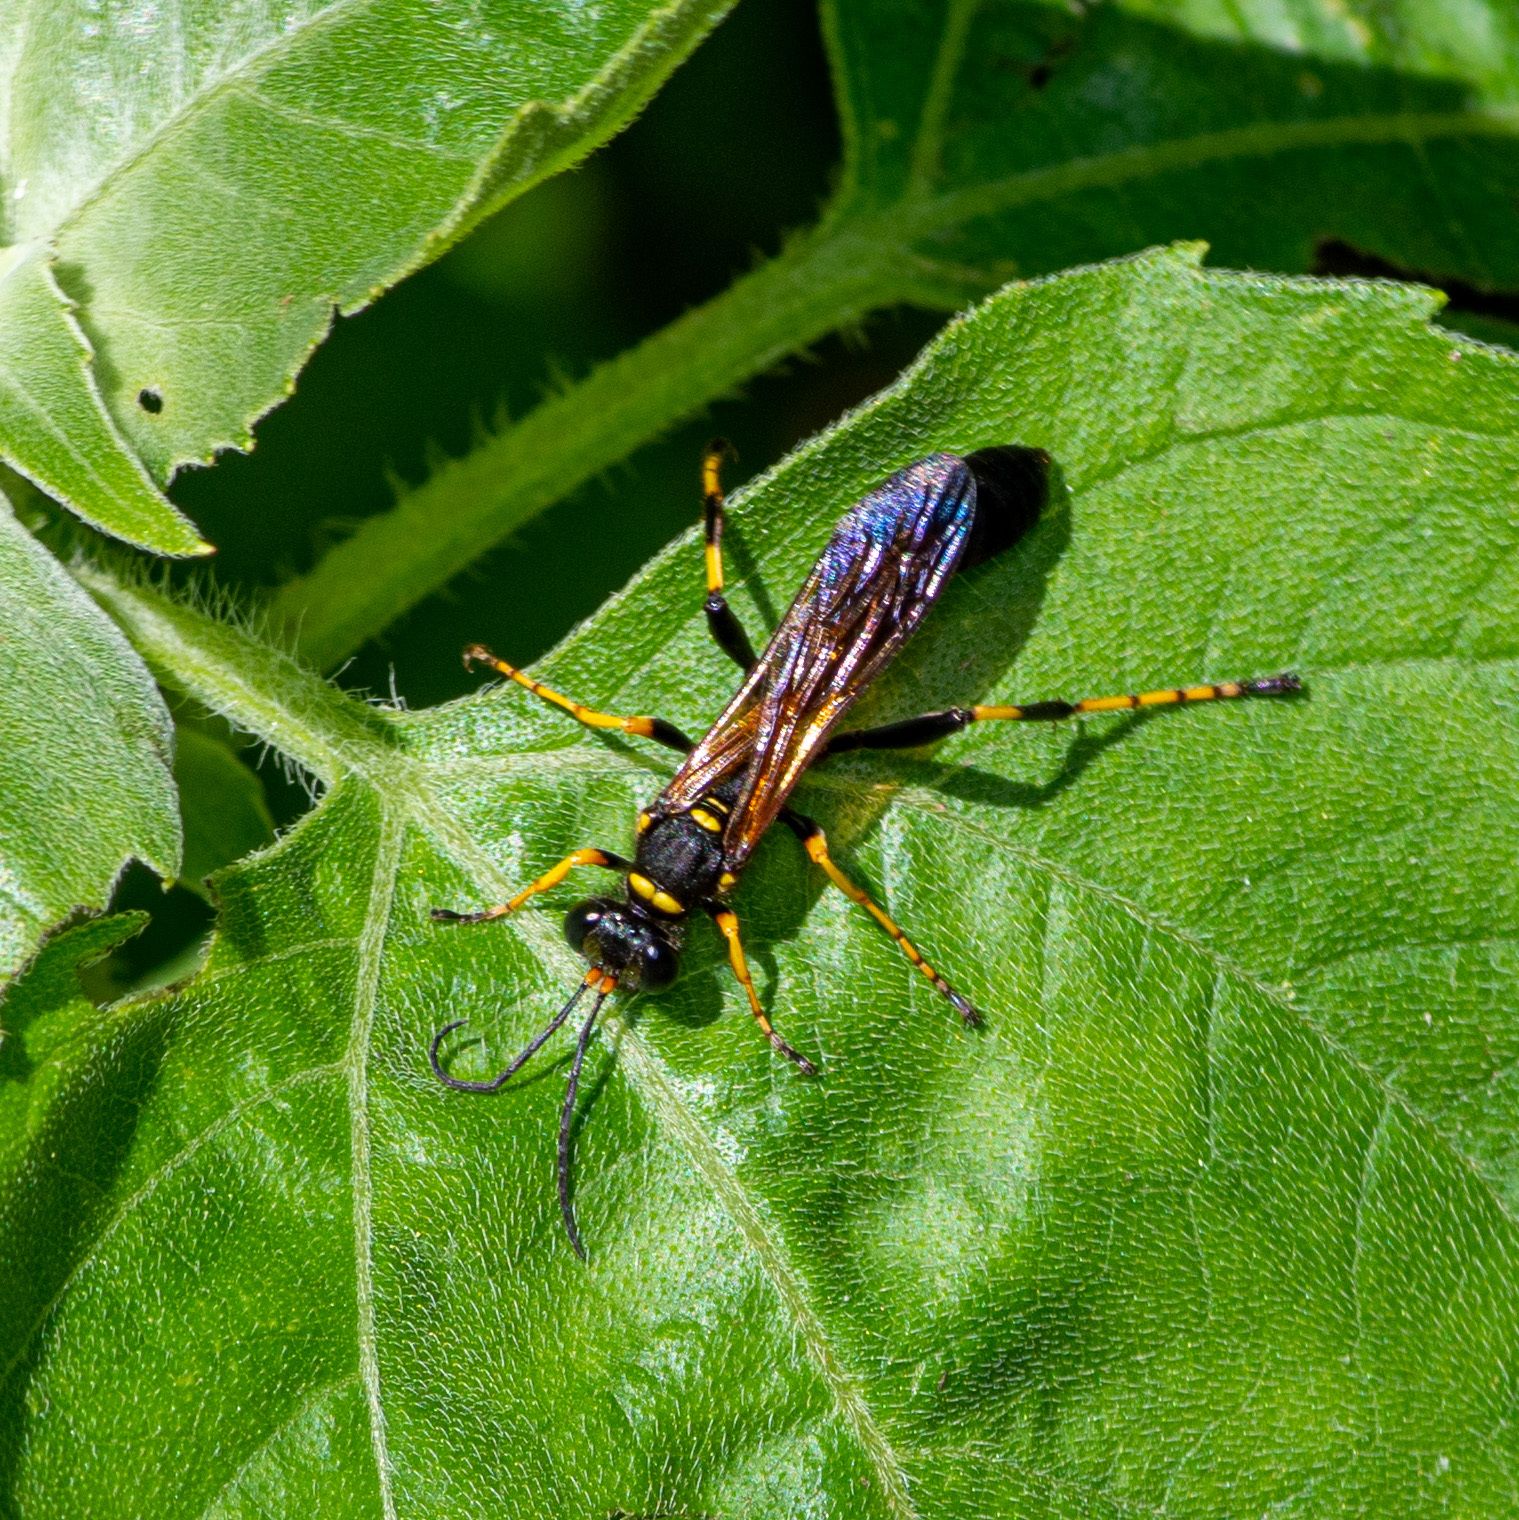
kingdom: Animalia
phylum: Arthropoda
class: Insecta
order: Hymenoptera
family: Sphecidae
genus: Sceliphron
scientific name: Sceliphron caementarium
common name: Mud dauber
